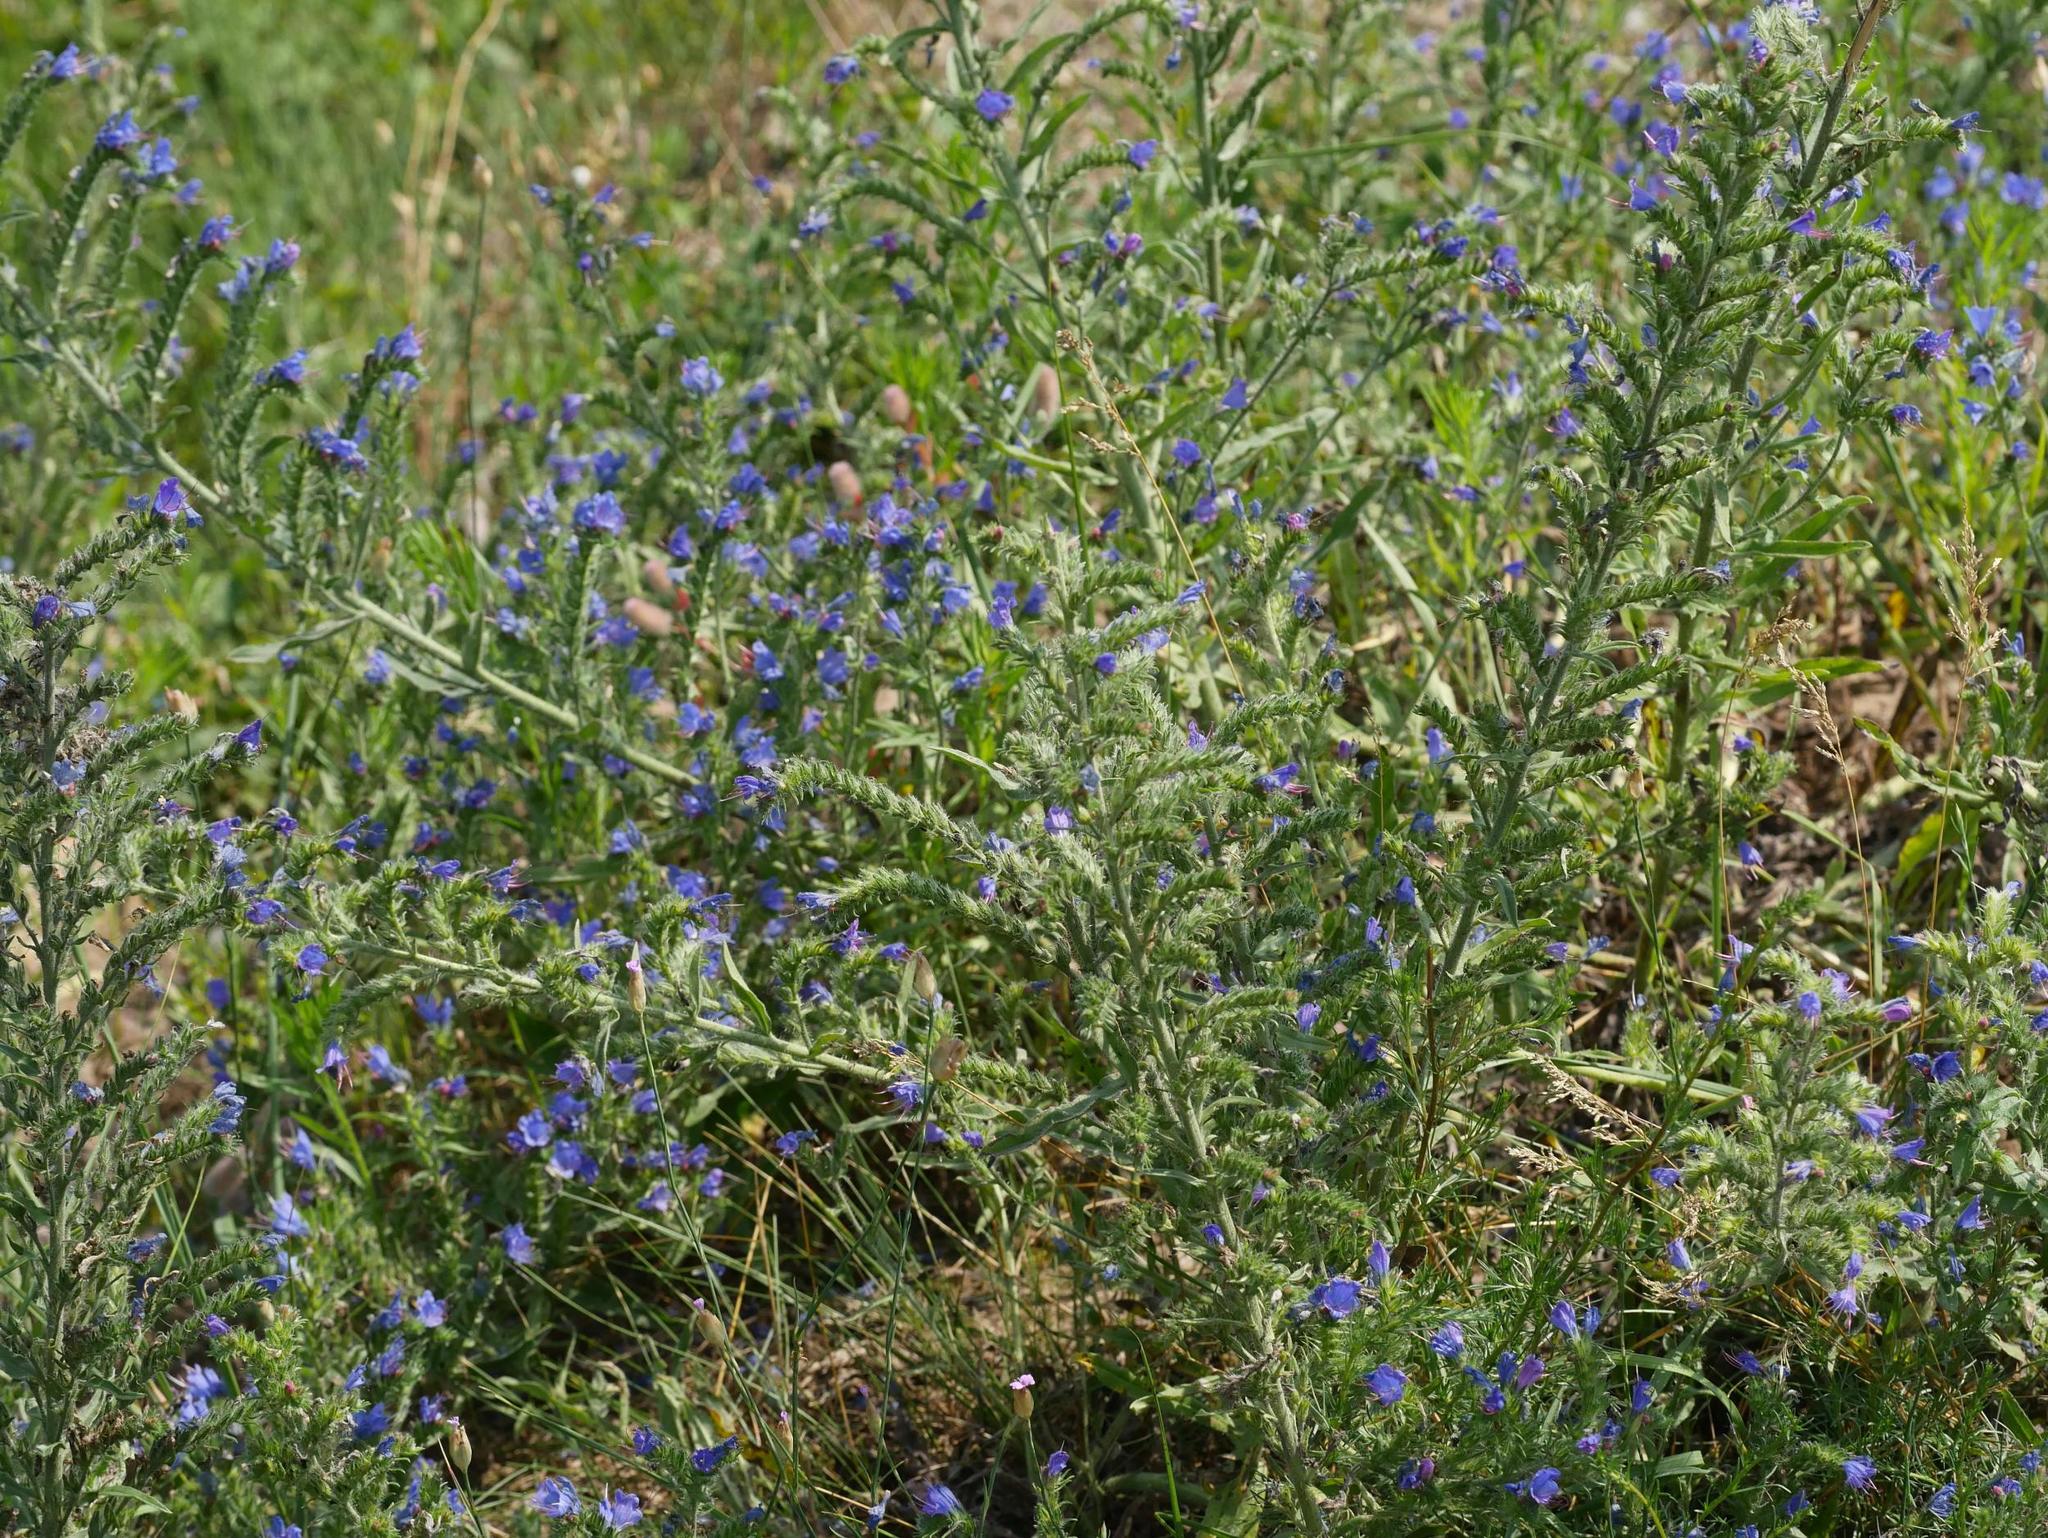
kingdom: Plantae
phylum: Tracheophyta
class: Magnoliopsida
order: Boraginales
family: Boraginaceae
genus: Echium
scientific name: Echium vulgare
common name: Common viper's bugloss
